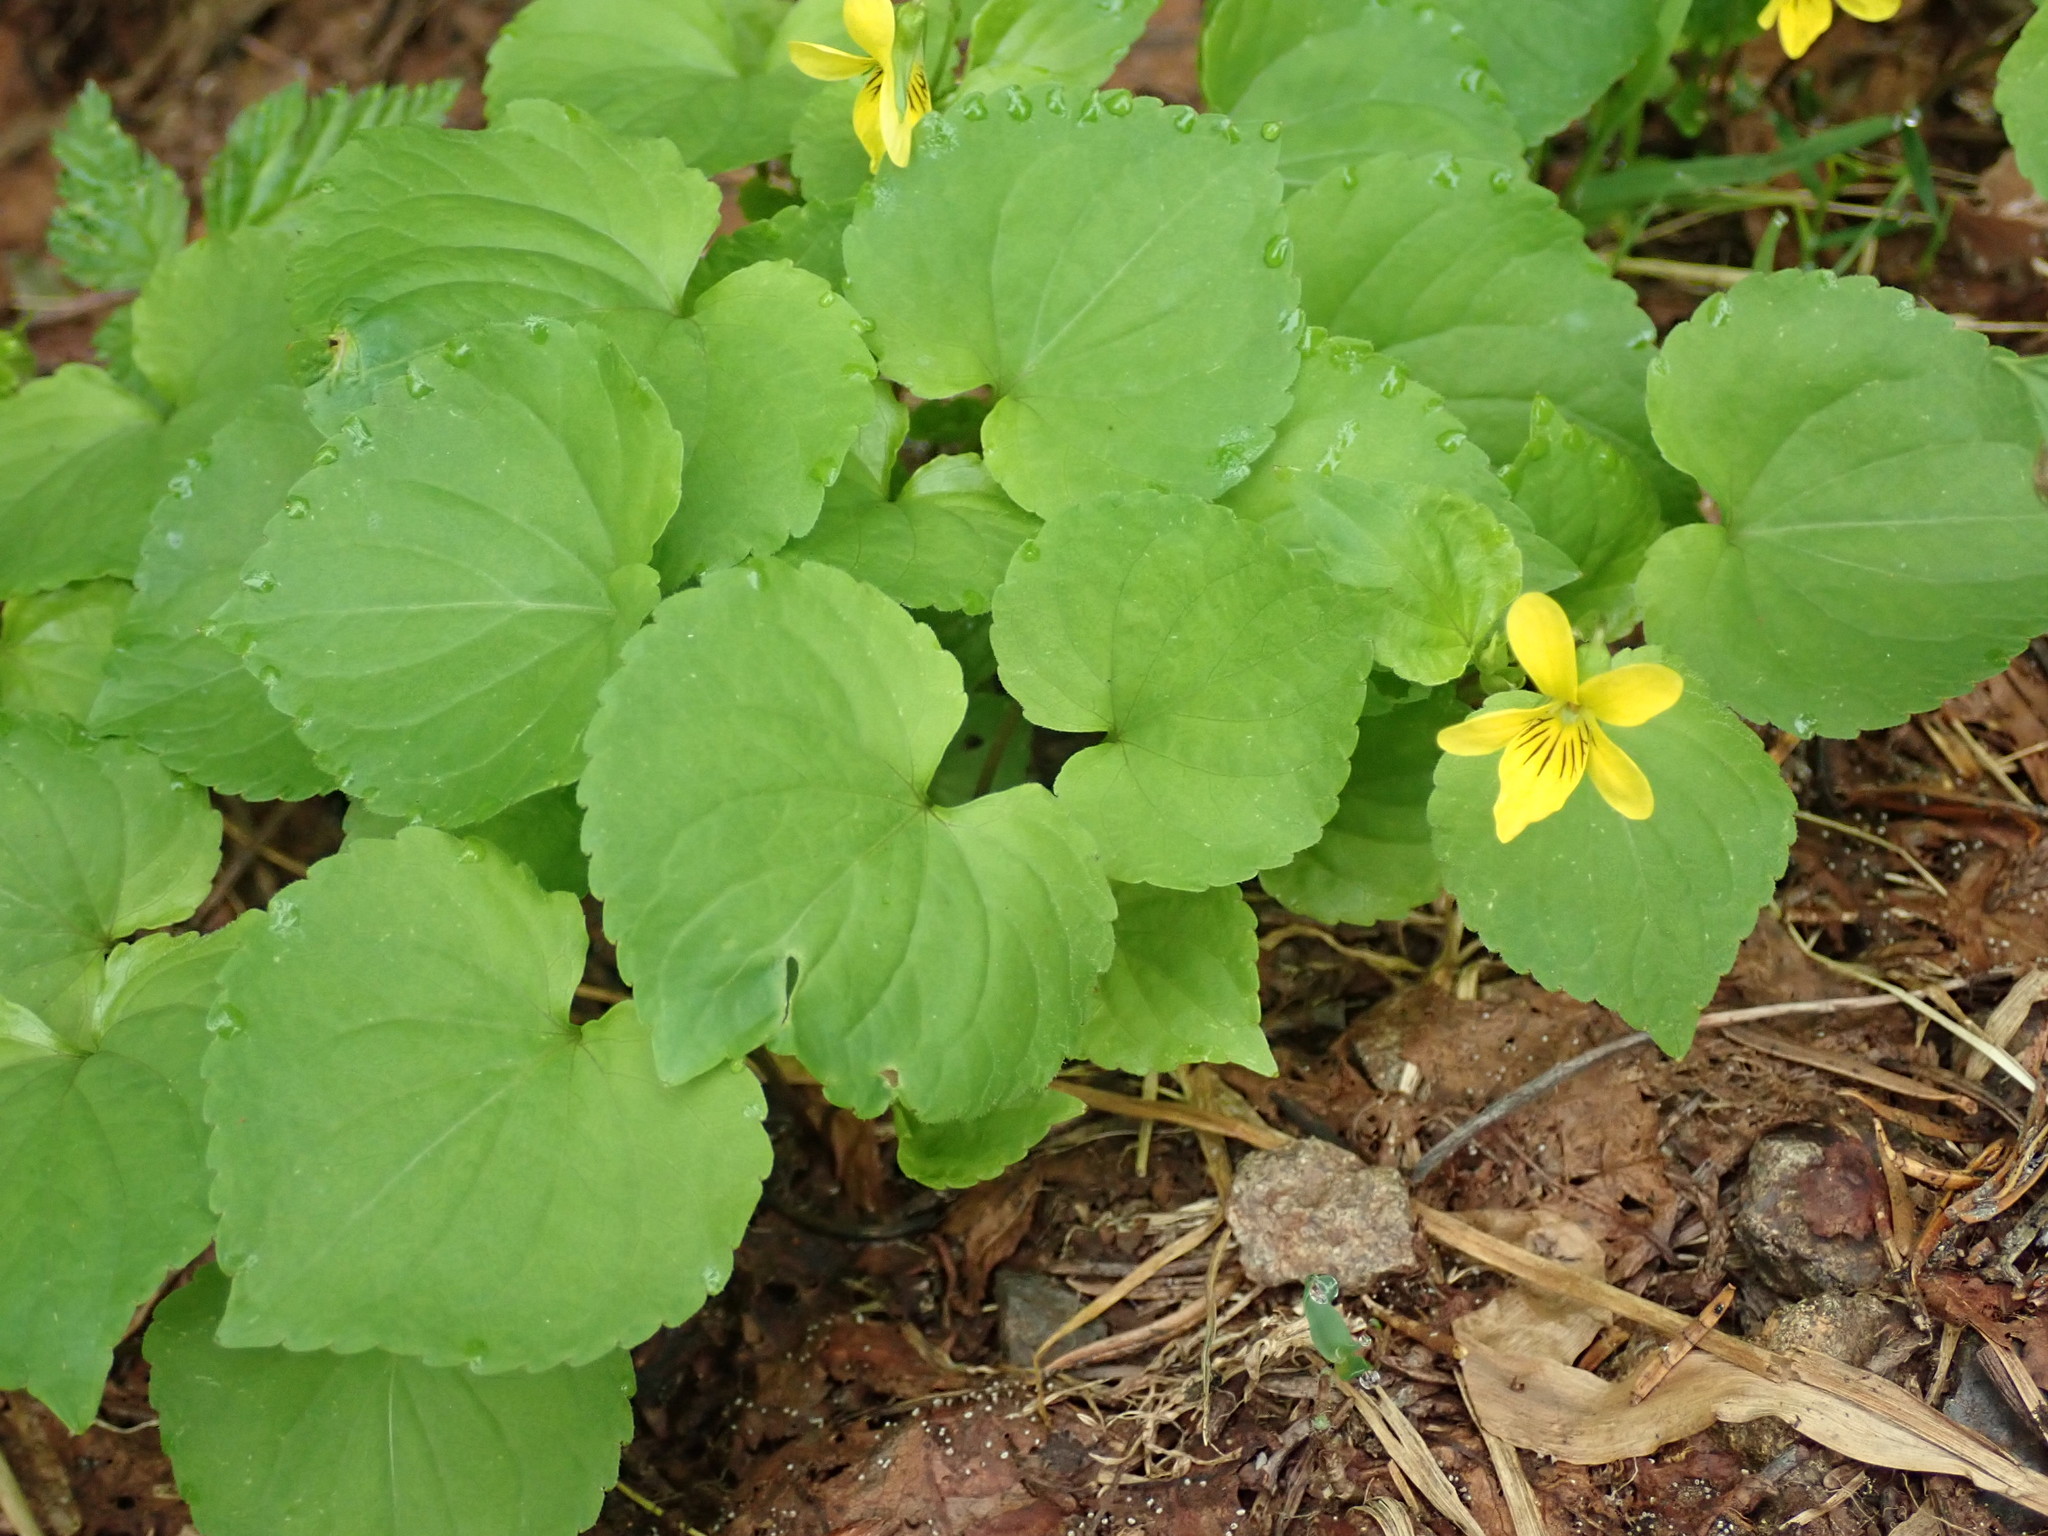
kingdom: Plantae
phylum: Tracheophyta
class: Magnoliopsida
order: Malpighiales
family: Violaceae
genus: Viola
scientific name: Viola glabella
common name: Stream violet
